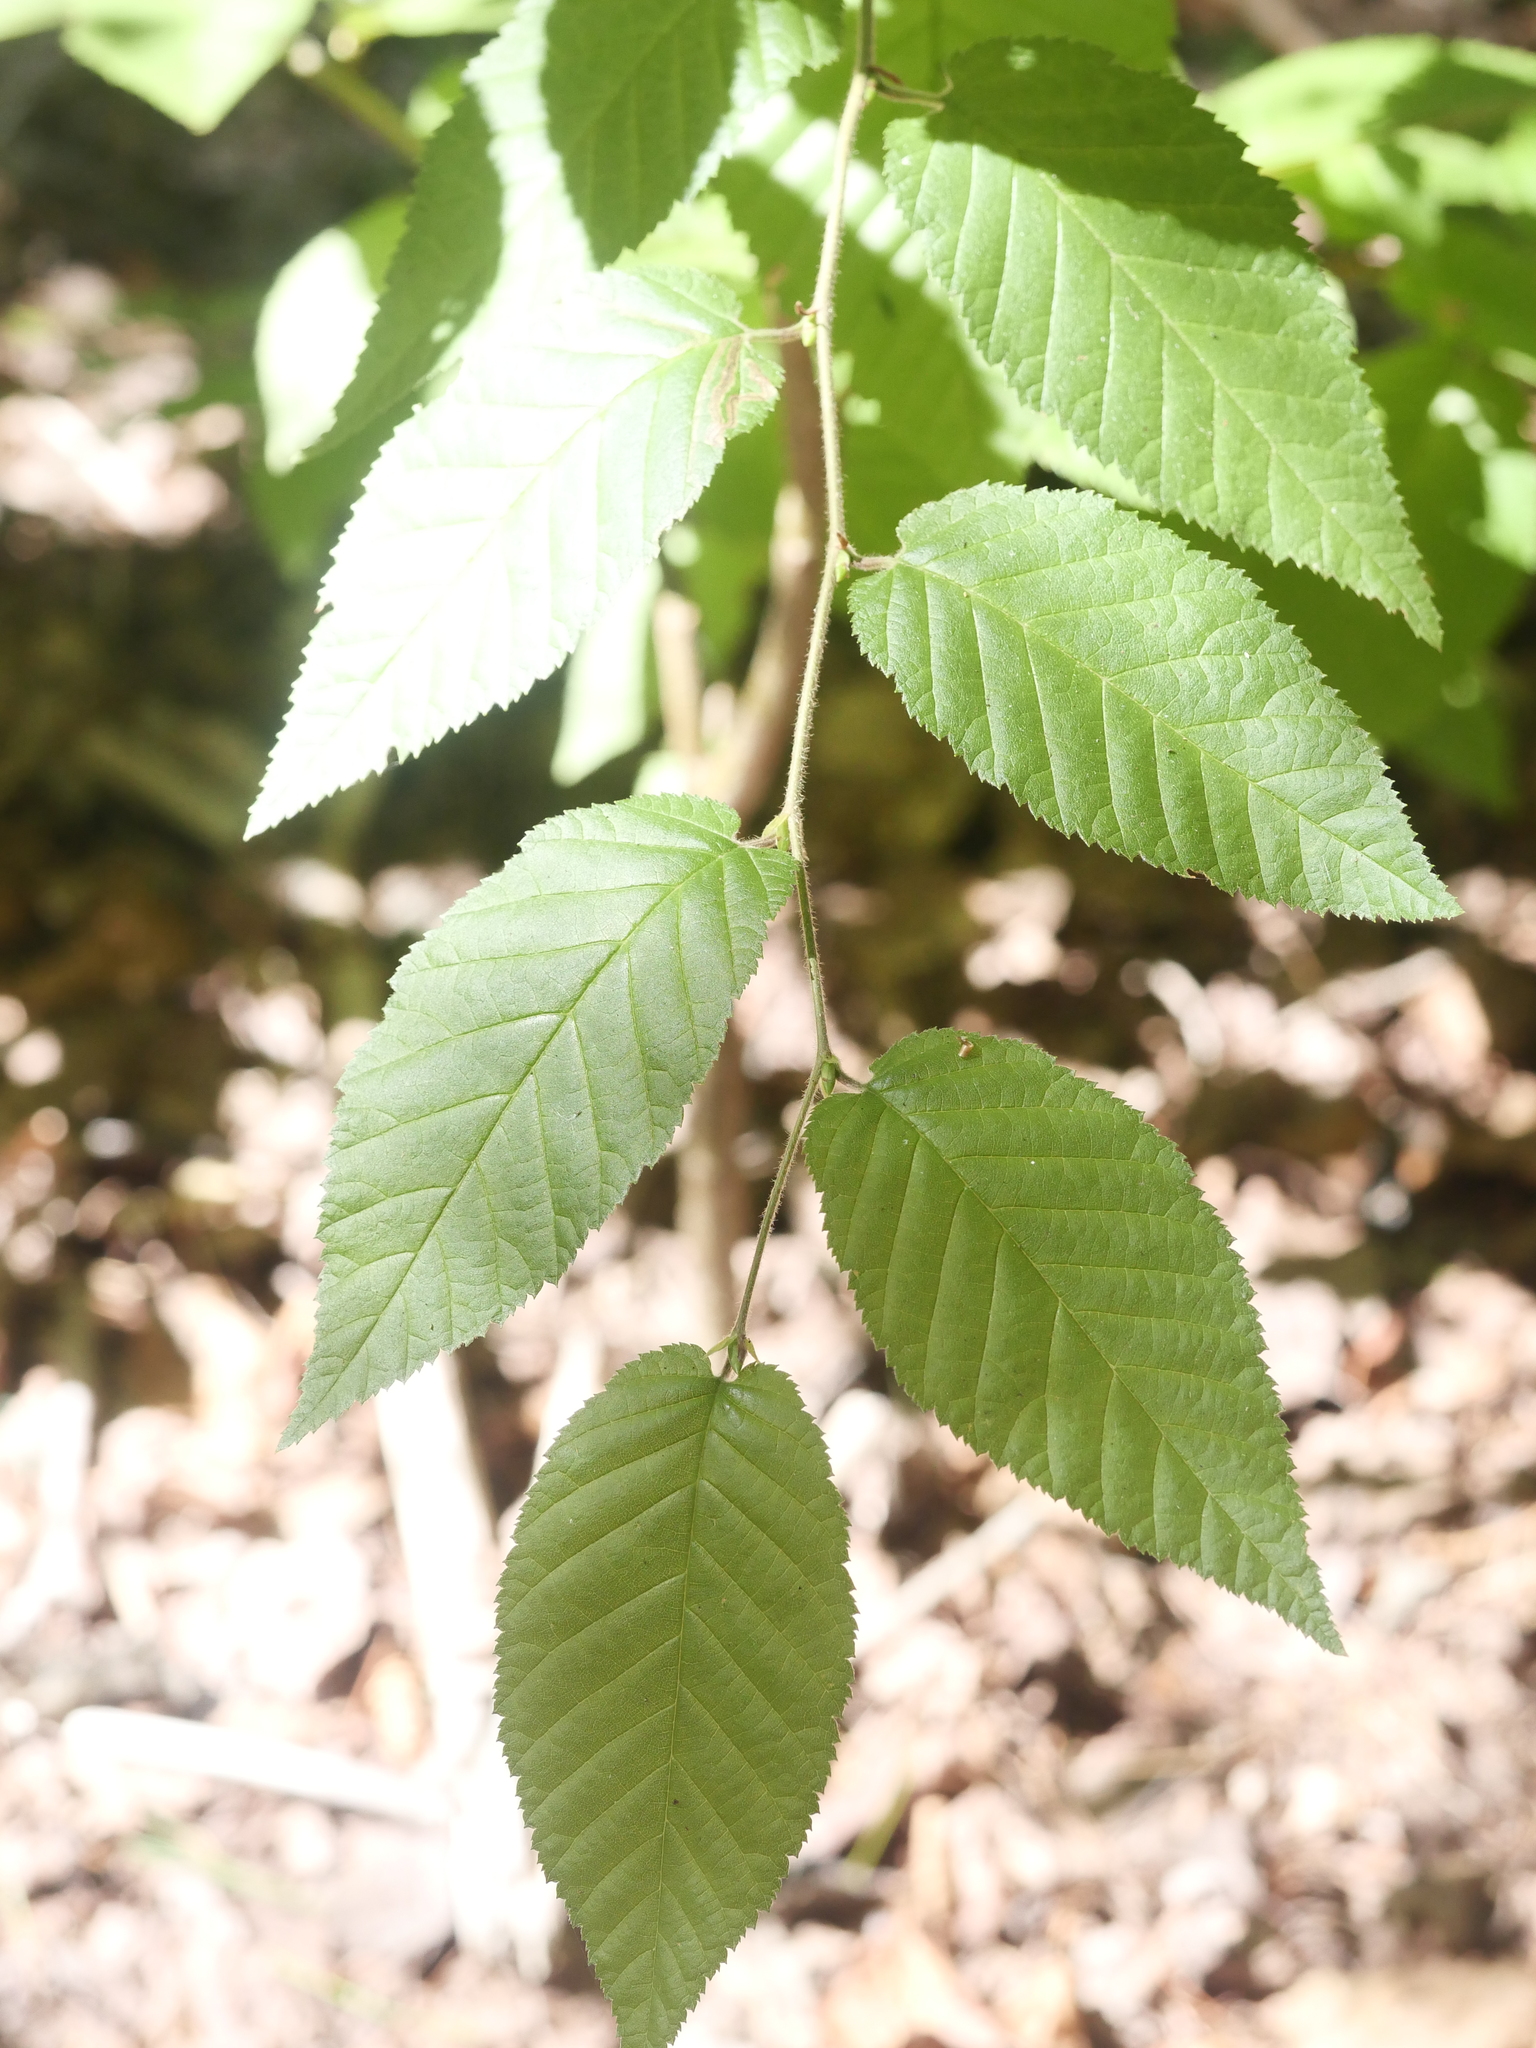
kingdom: Plantae
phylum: Tracheophyta
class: Magnoliopsida
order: Fagales
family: Betulaceae
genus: Betula
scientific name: Betula alleghaniensis
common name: Yellow birch
